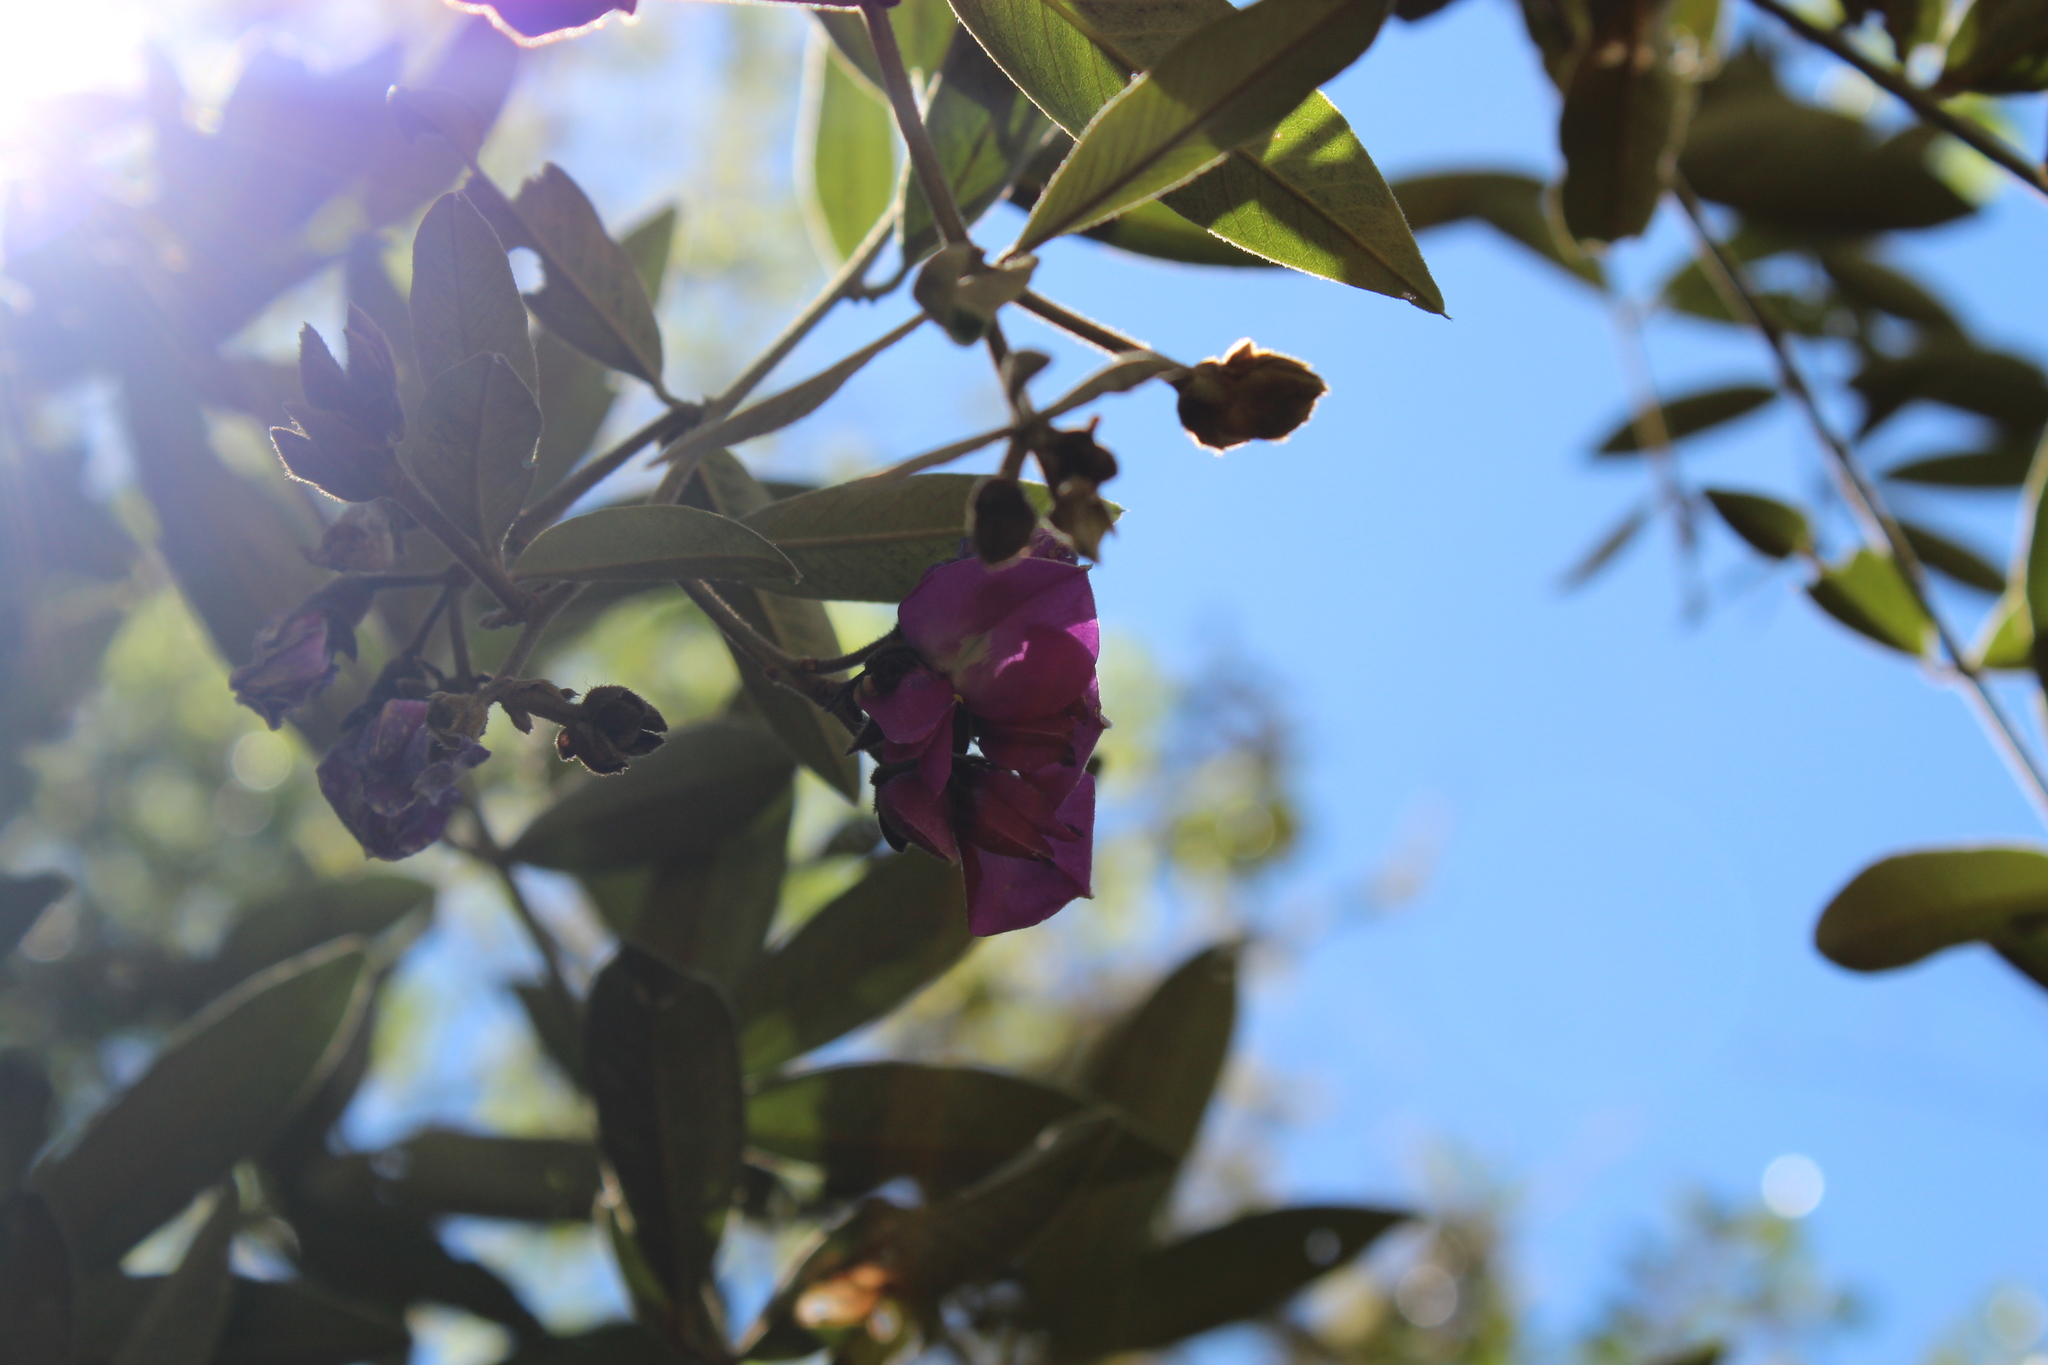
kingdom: Plantae
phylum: Tracheophyta
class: Magnoliopsida
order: Fabales
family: Fabaceae
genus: Collaea
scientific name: Collaea speciosa
